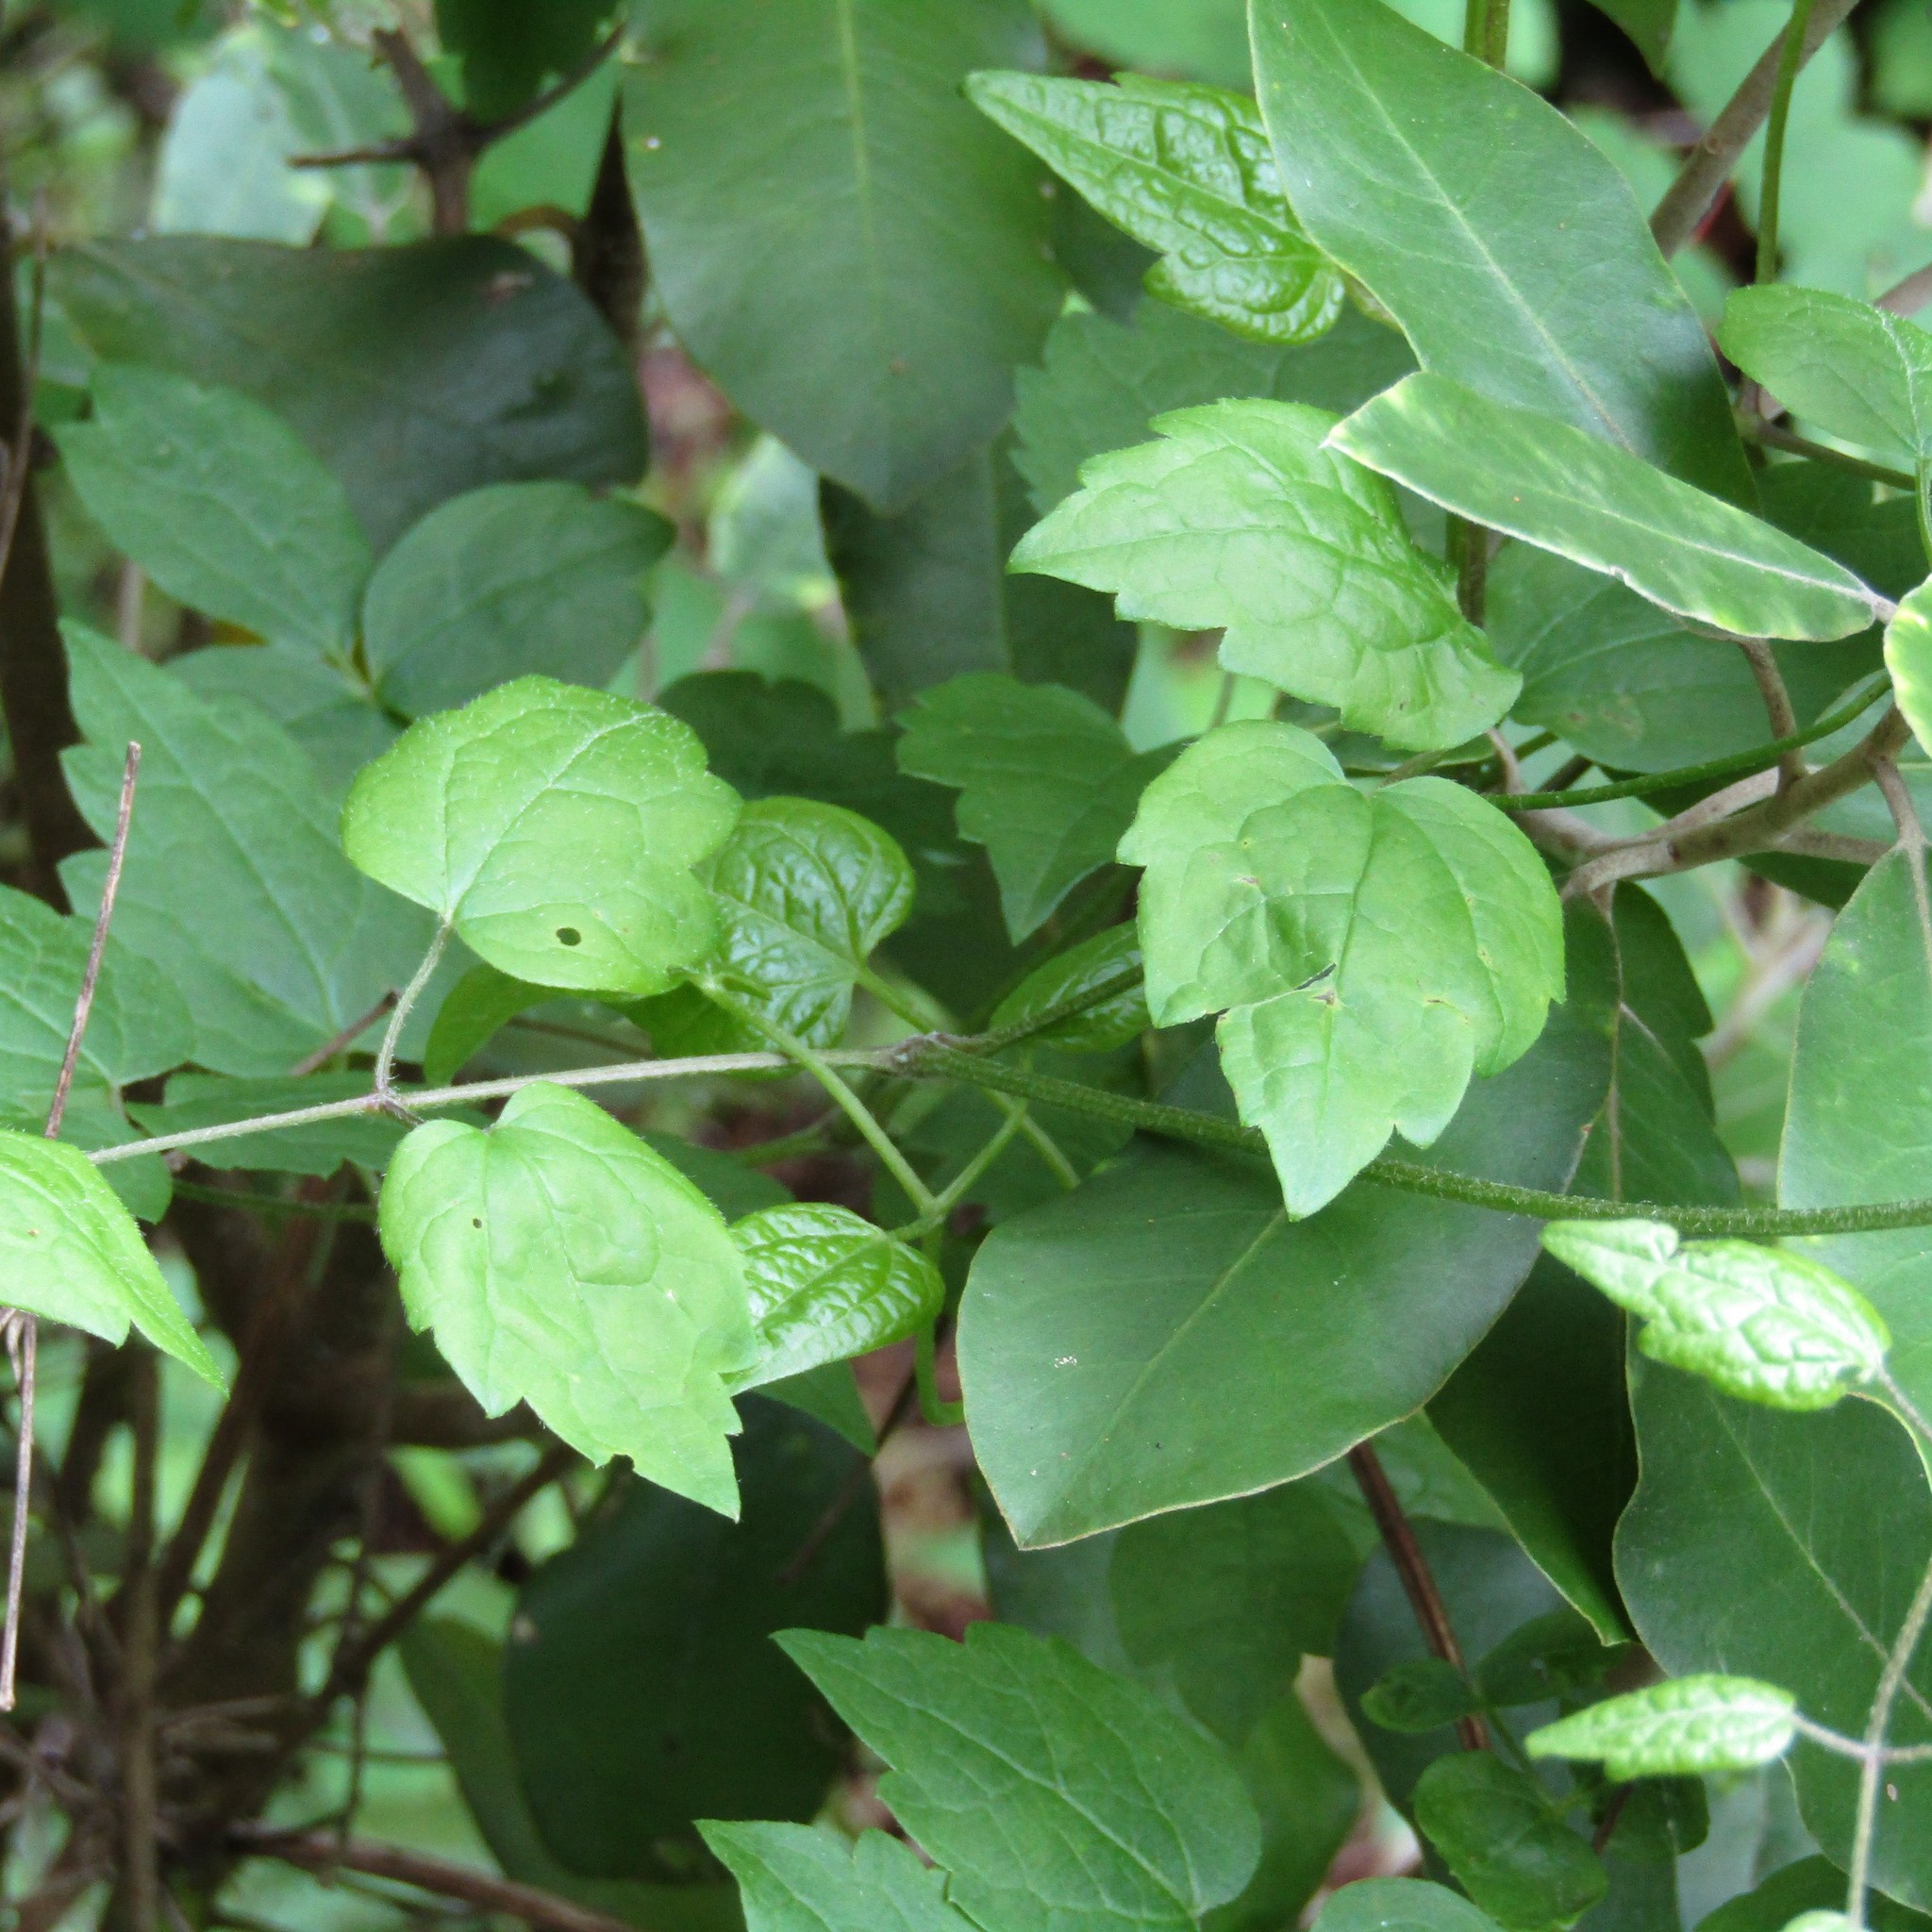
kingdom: Plantae
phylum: Tracheophyta
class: Magnoliopsida
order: Apiales
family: Pittosporaceae
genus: Pittosporum
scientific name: Pittosporum ralphii
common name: Ralph's desertwillow
